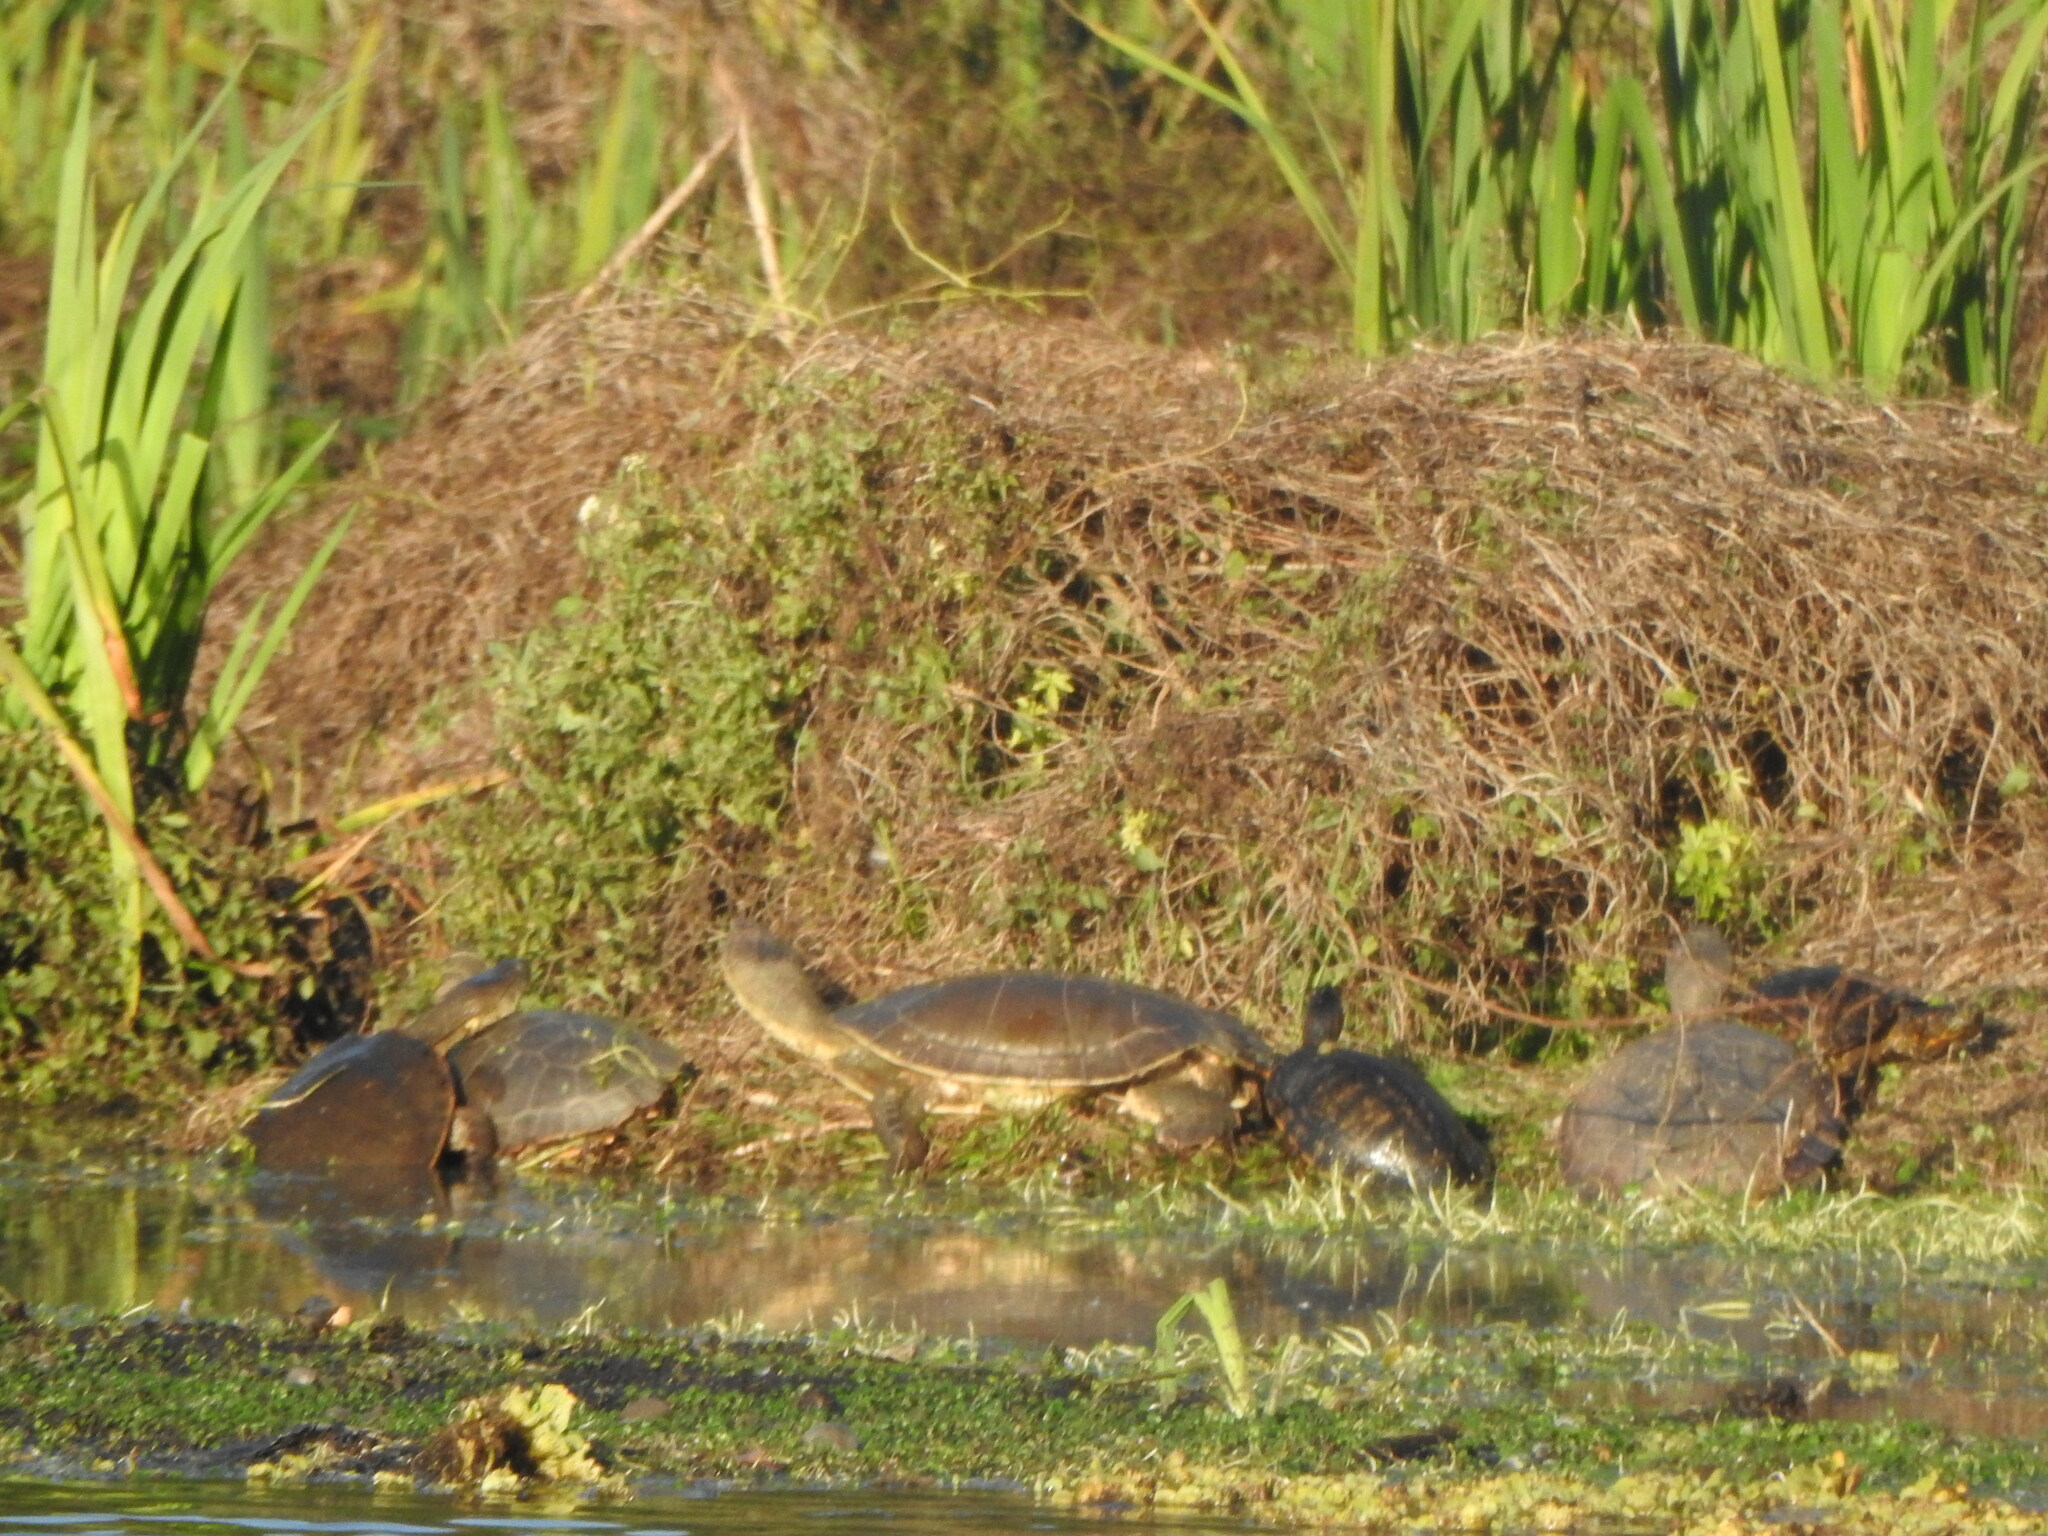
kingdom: Animalia
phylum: Chordata
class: Testudines
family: Chelidae
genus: Phrynops
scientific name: Phrynops hilarii
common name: Side-necked turtle of saint hillaire
